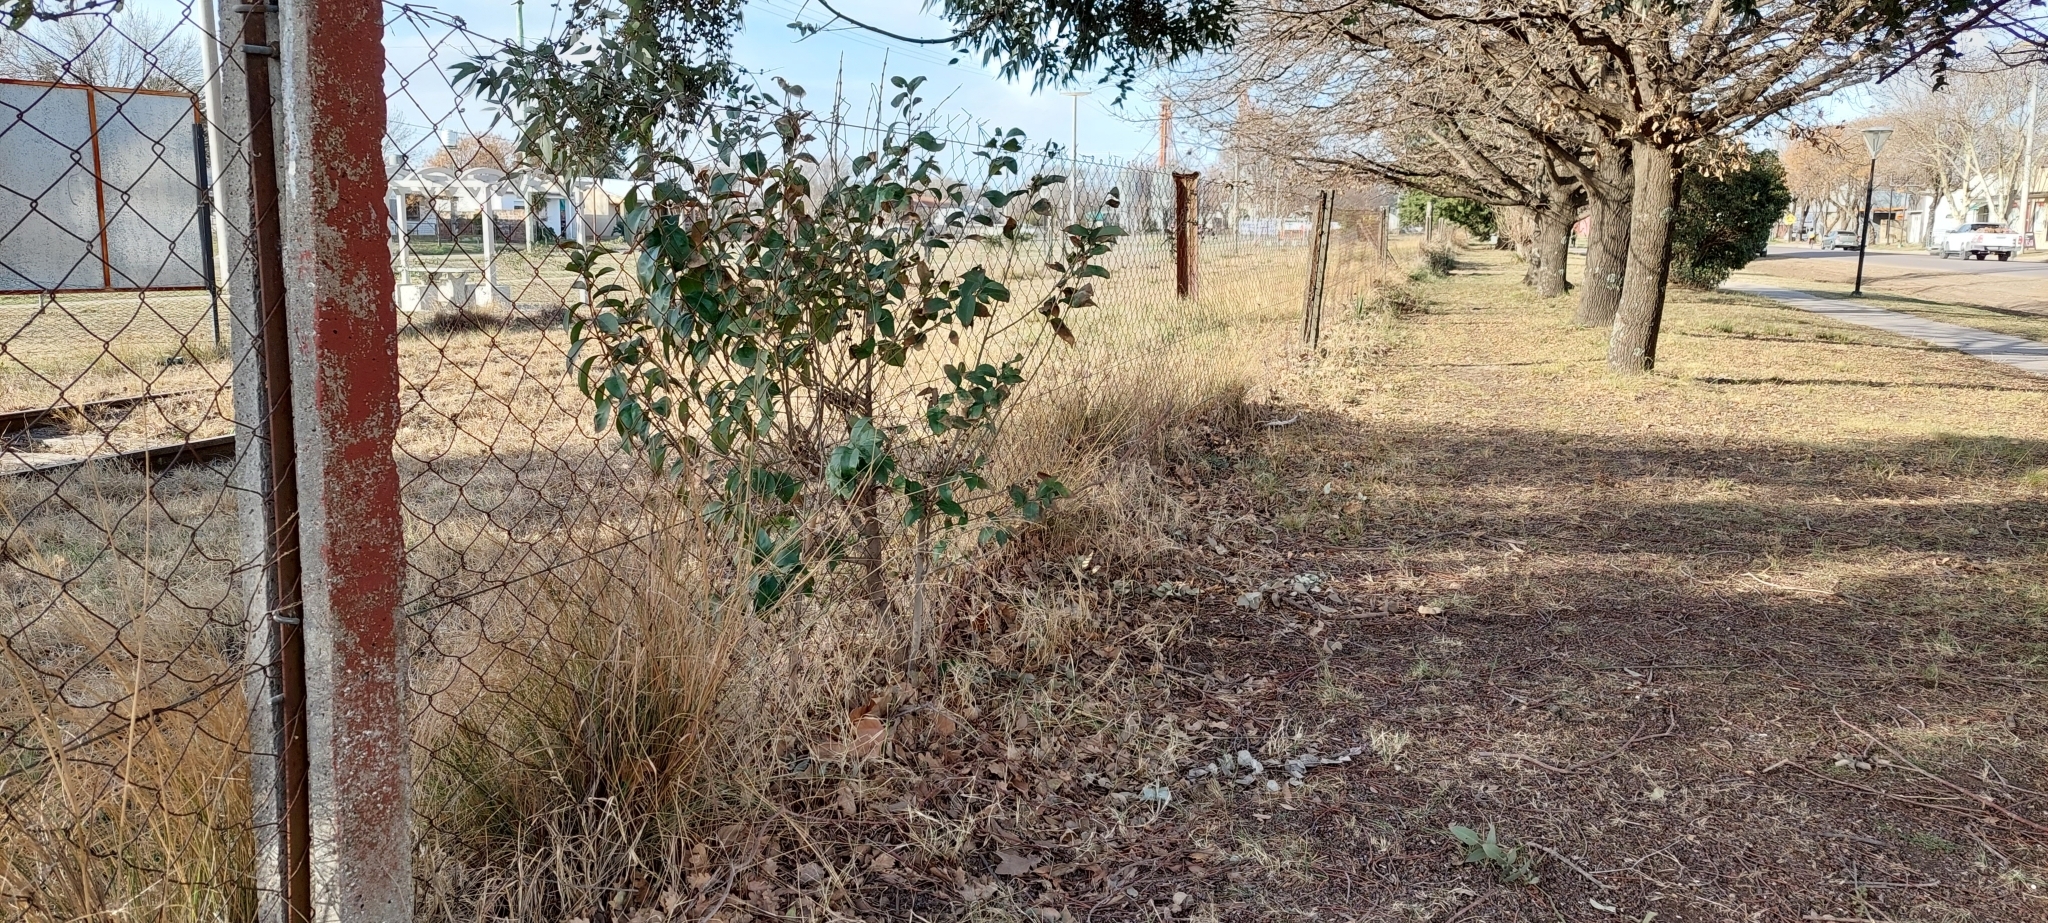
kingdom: Plantae
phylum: Tracheophyta
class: Magnoliopsida
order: Lamiales
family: Oleaceae
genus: Ligustrum
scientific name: Ligustrum lucidum
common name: Glossy privet
